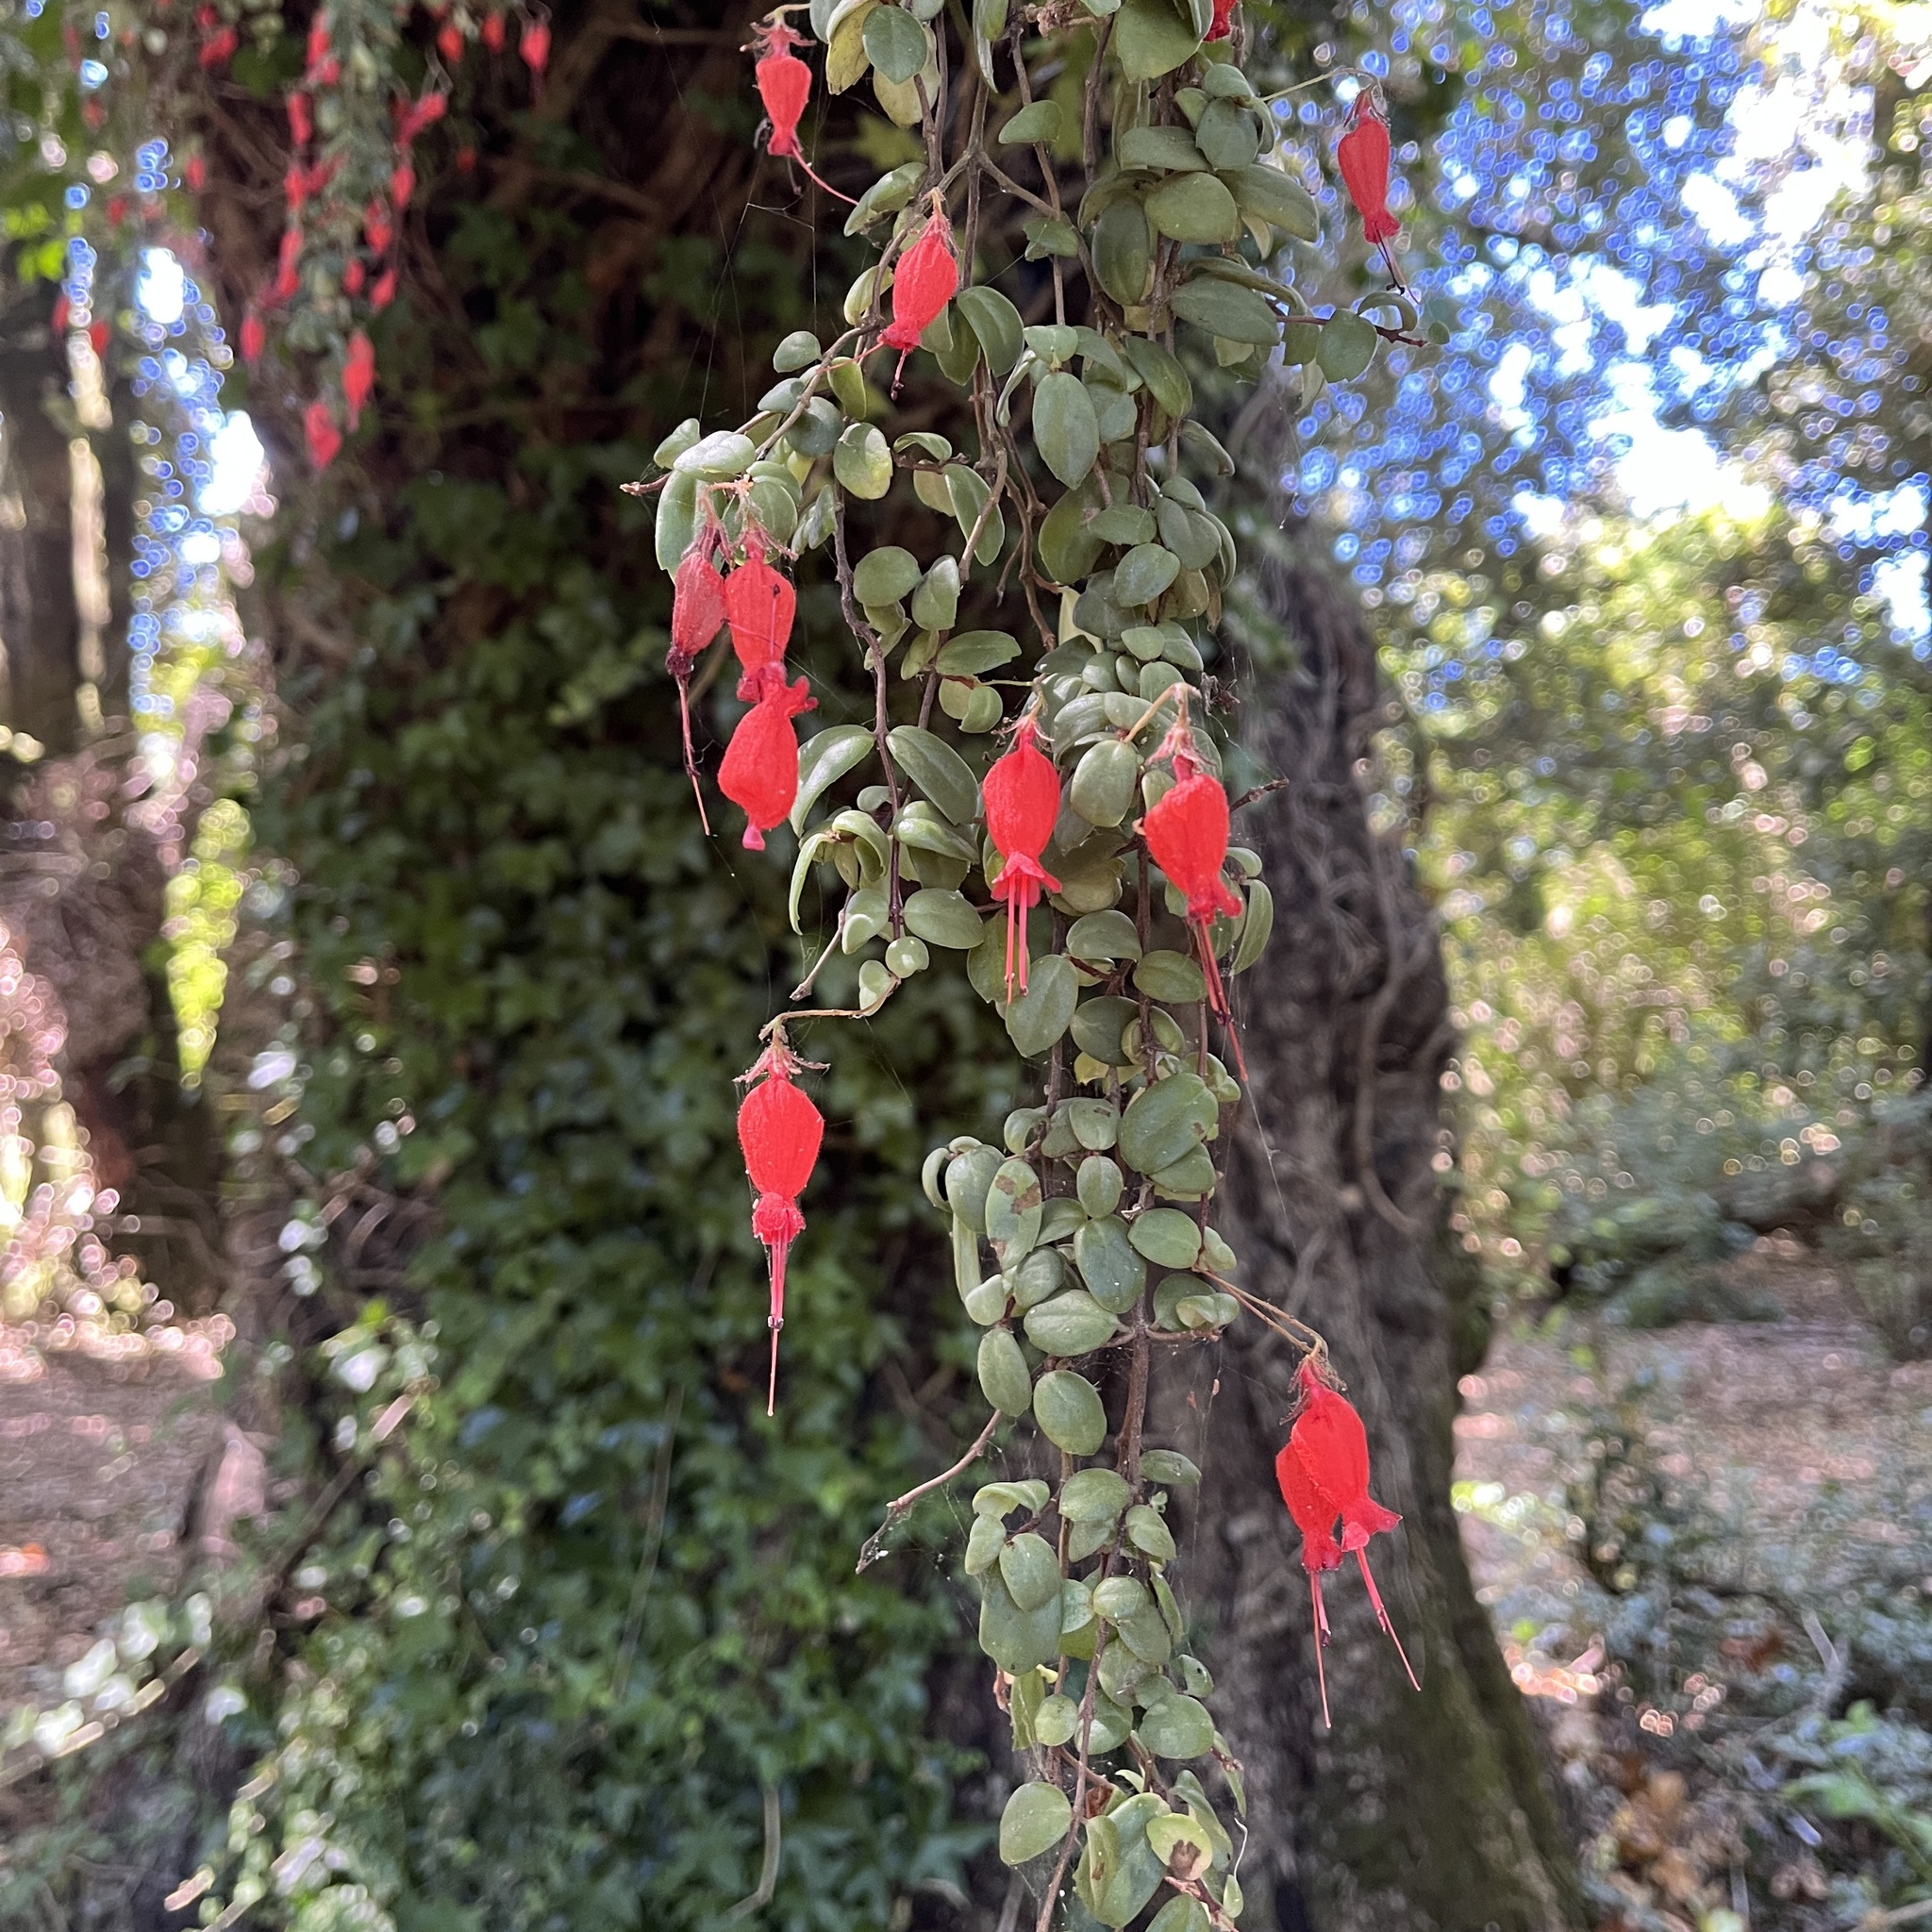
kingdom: Plantae
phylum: Tracheophyta
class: Magnoliopsida
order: Lamiales
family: Gesneriaceae
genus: Sarmienta
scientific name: Sarmienta scandens
